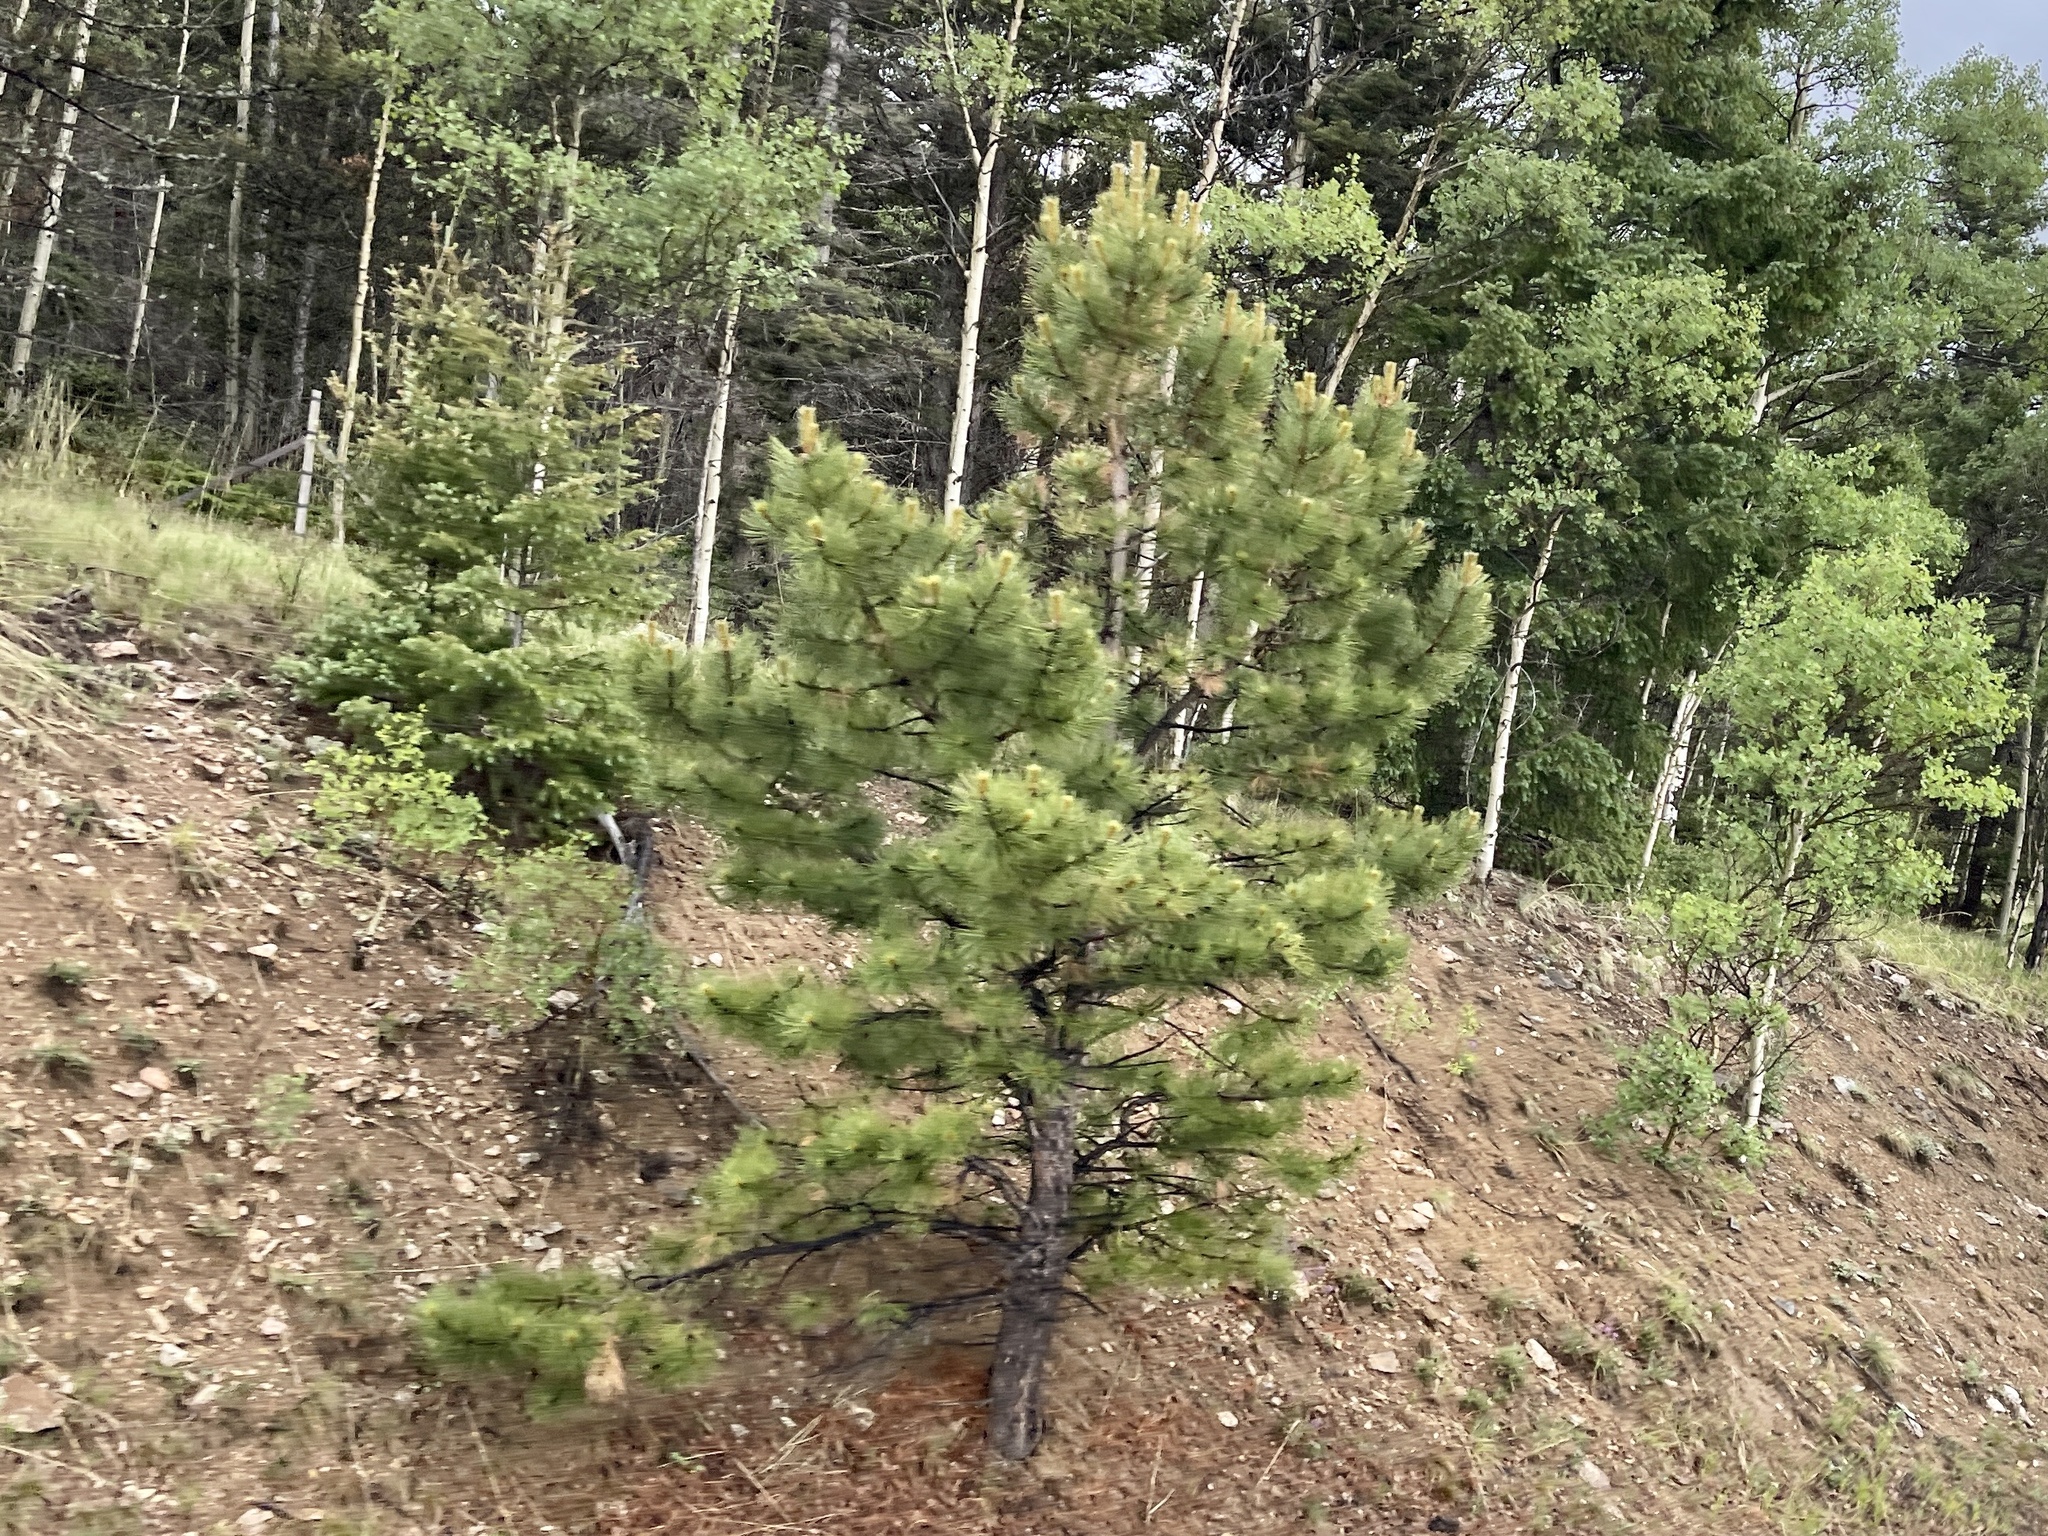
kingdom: Plantae
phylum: Tracheophyta
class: Pinopsida
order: Pinales
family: Pinaceae
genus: Pinus
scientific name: Pinus ponderosa
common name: Western yellow-pine
